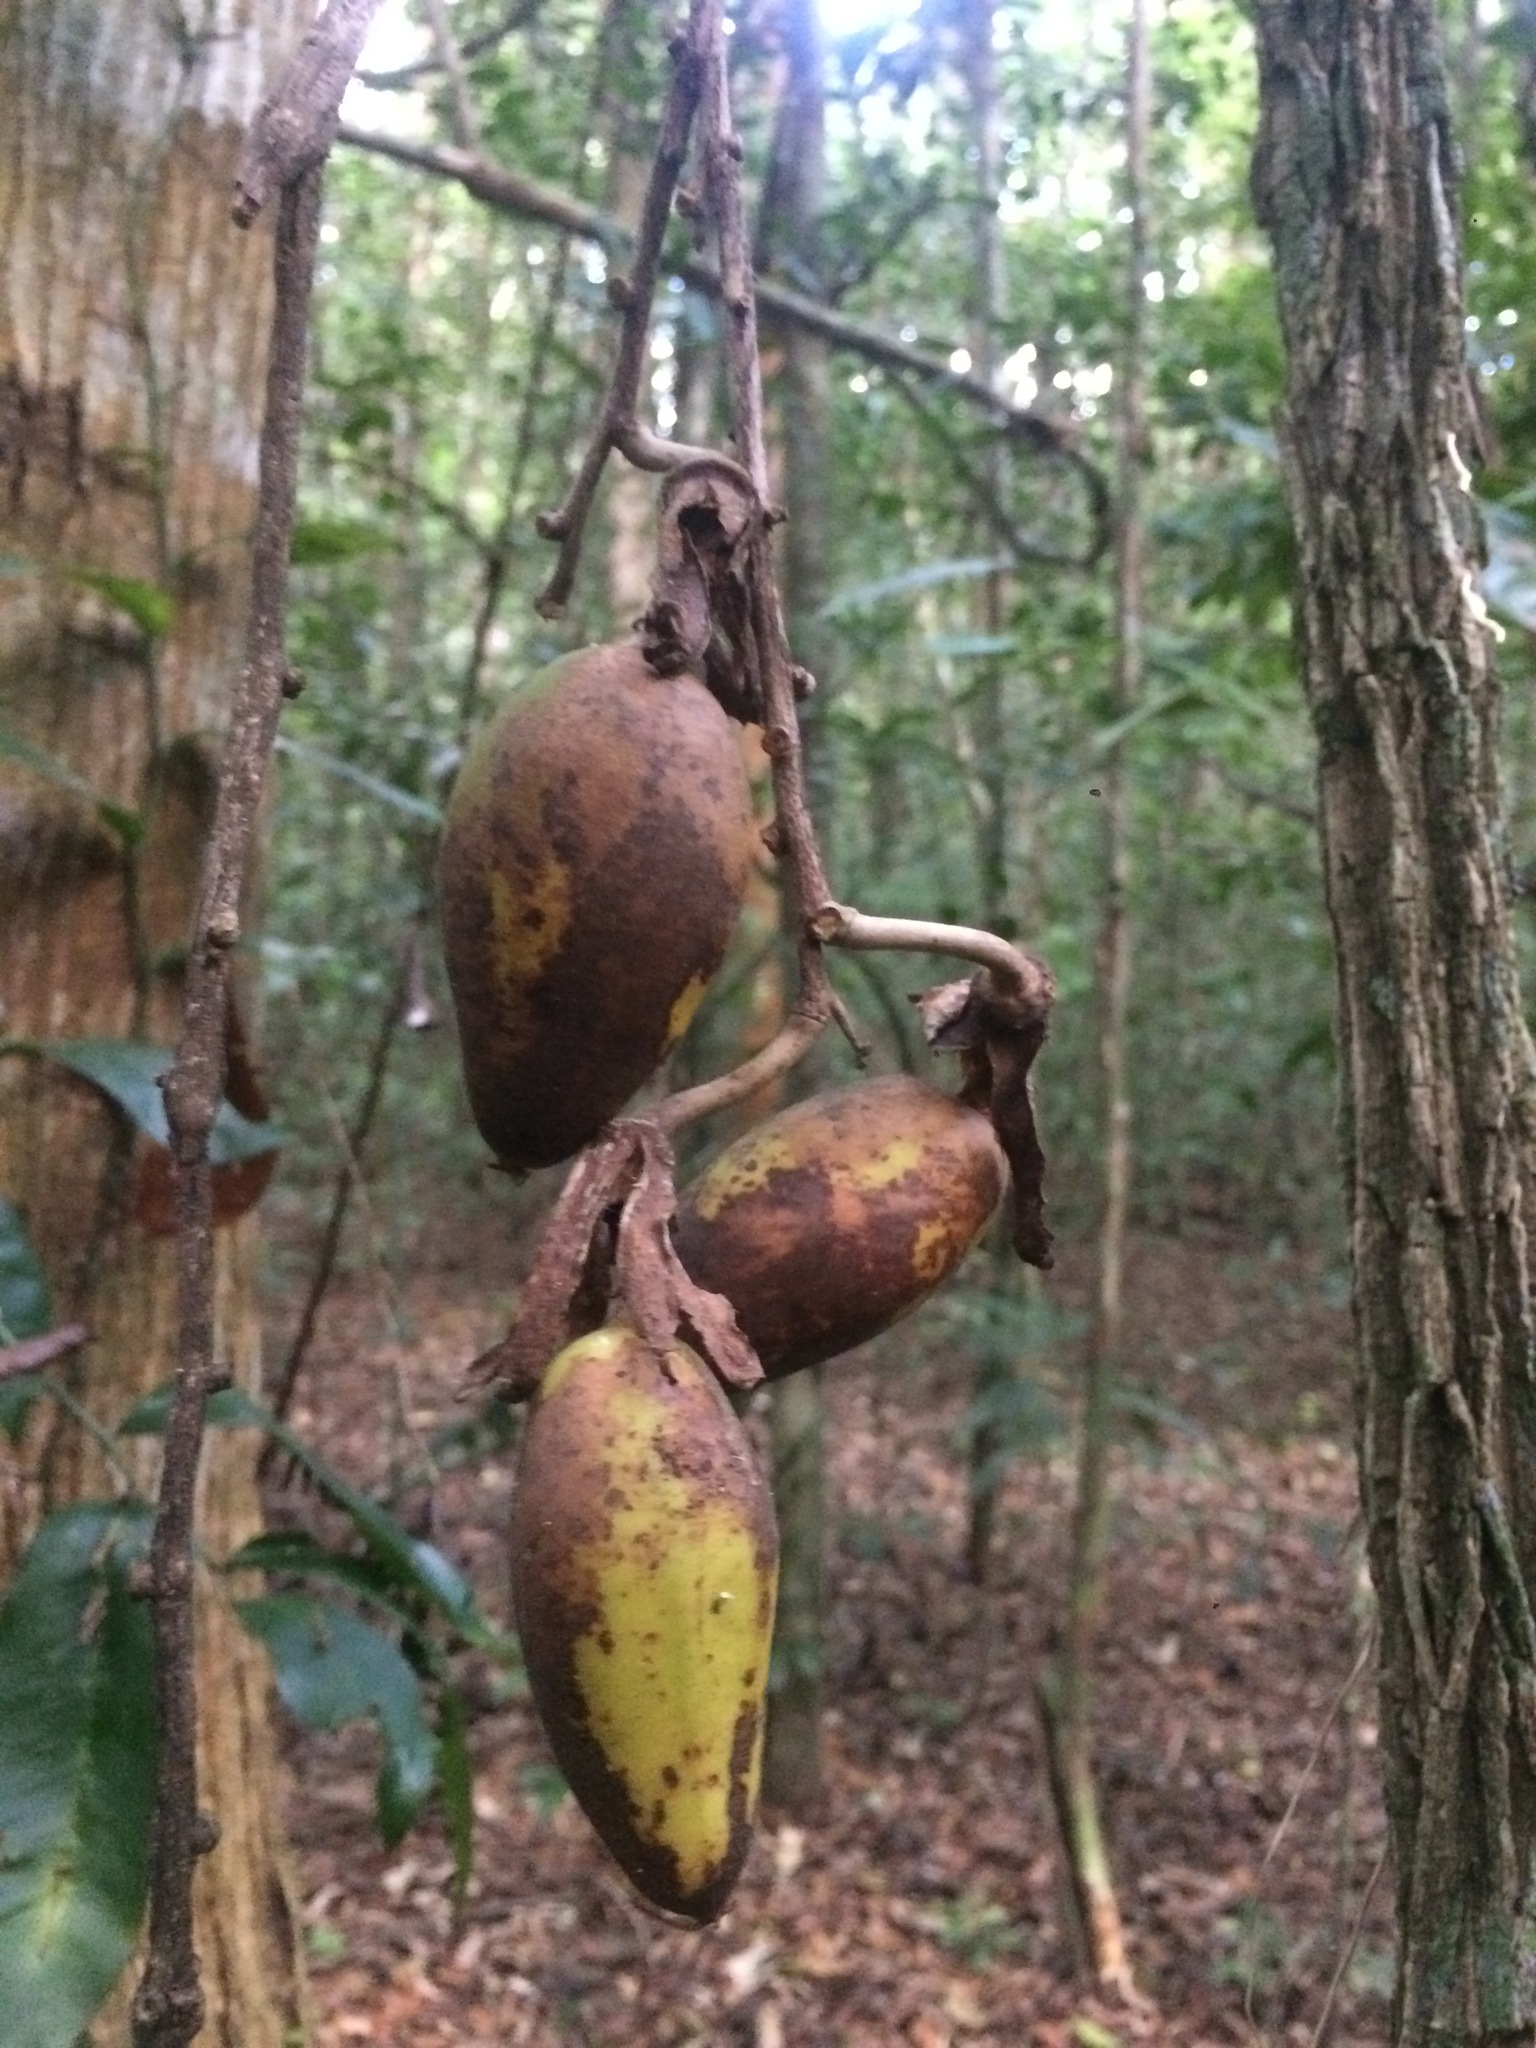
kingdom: Plantae
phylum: Tracheophyta
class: Magnoliopsida
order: Malpighiales
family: Passifloraceae
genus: Passiflora
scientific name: Passiflora contracta
